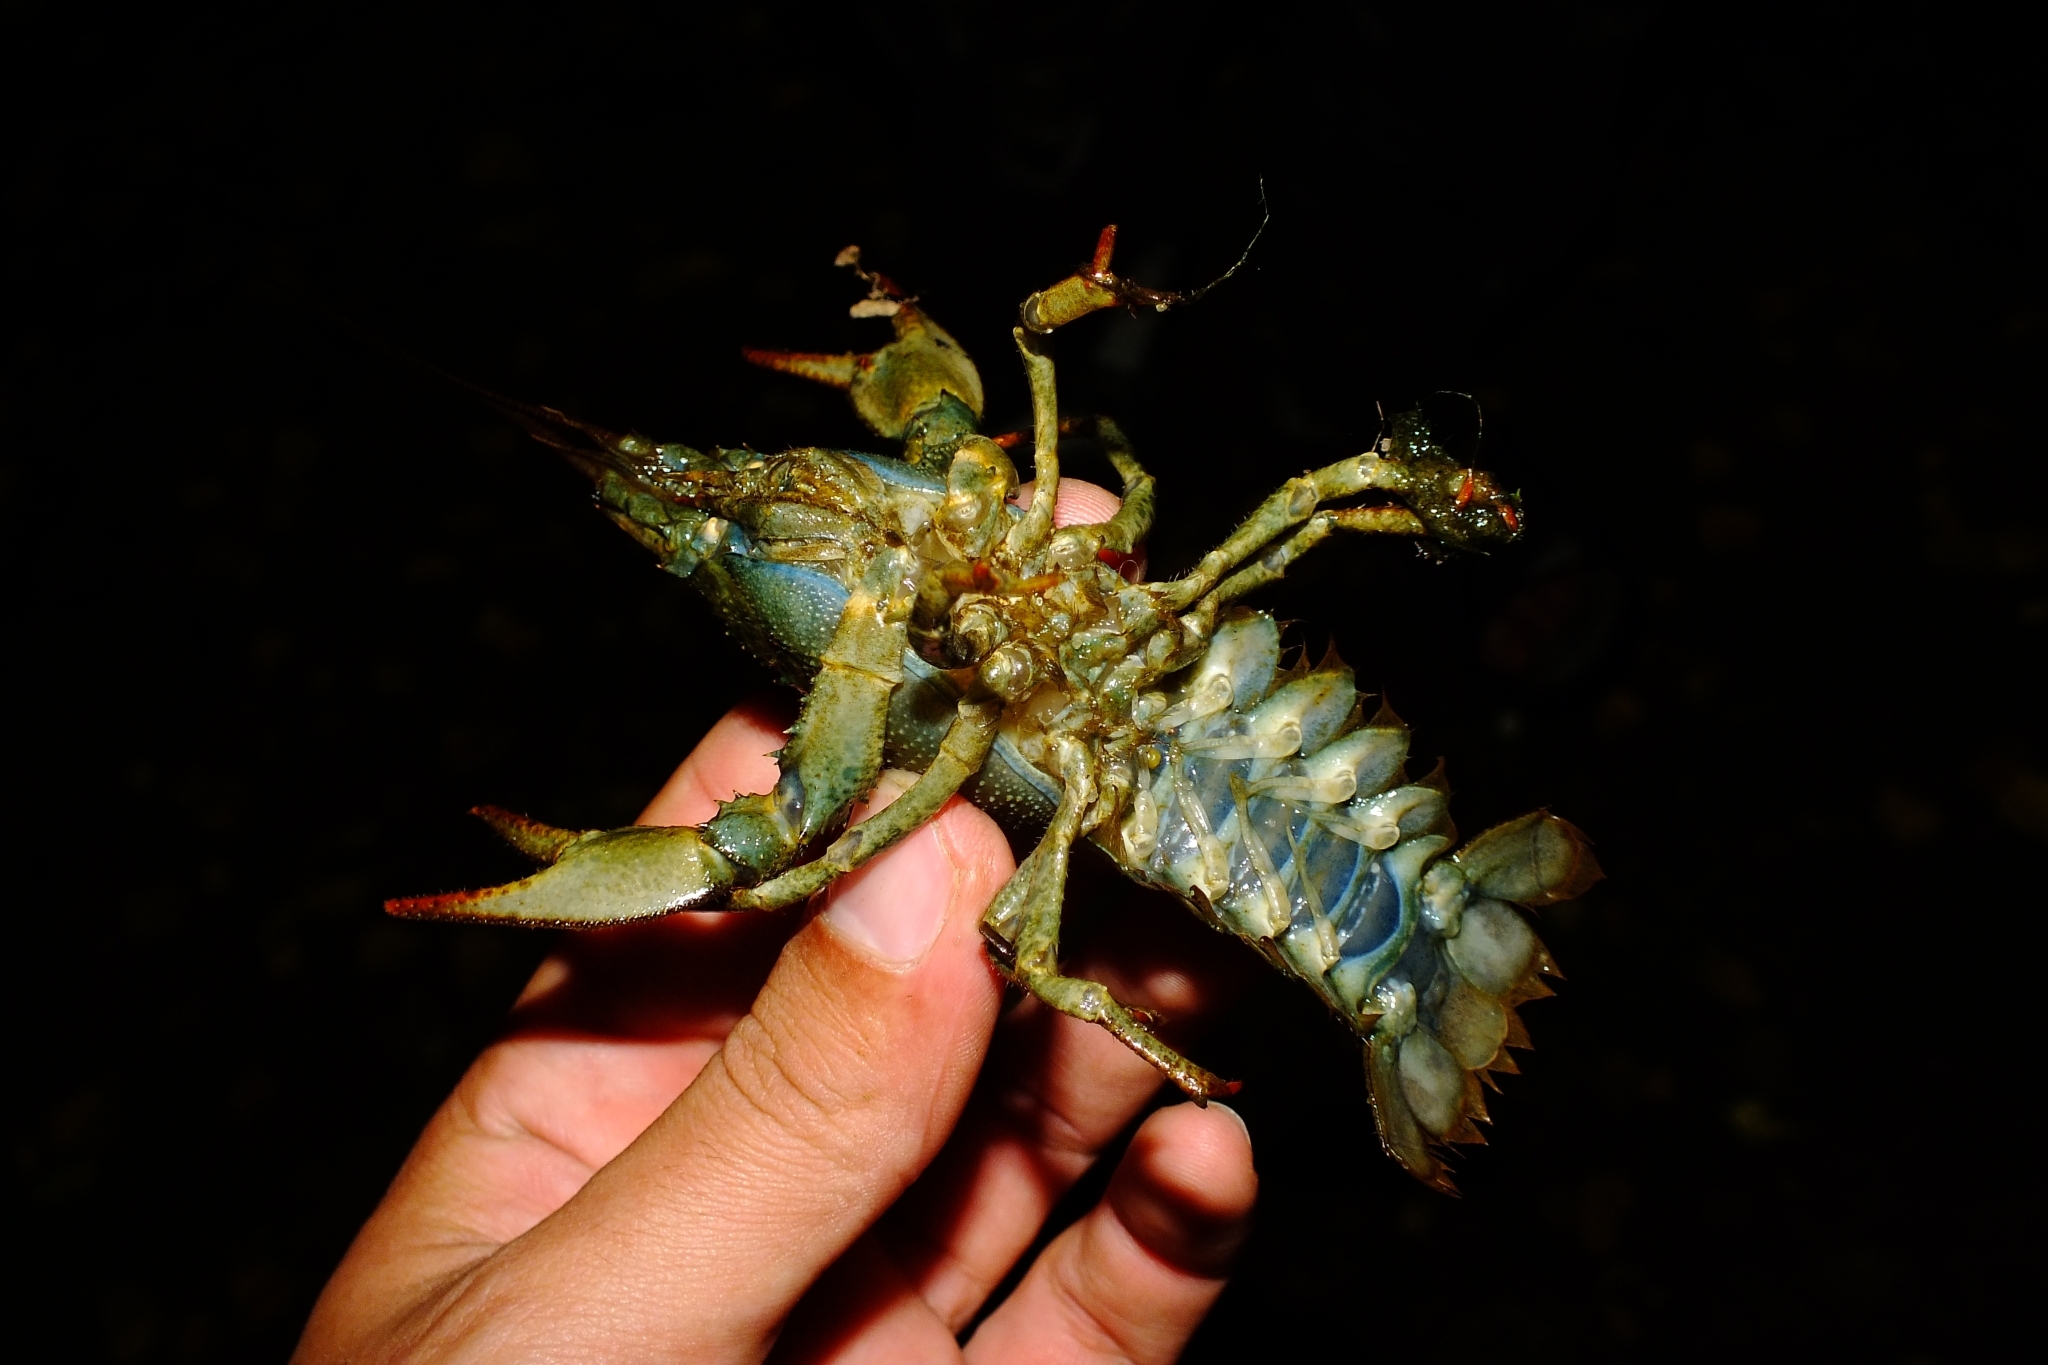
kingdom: Animalia
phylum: Arthropoda
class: Malacostraca
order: Decapoda
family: Astacidae
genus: Pontastacus
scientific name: Pontastacus leptodactylus
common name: Danube crayfish
